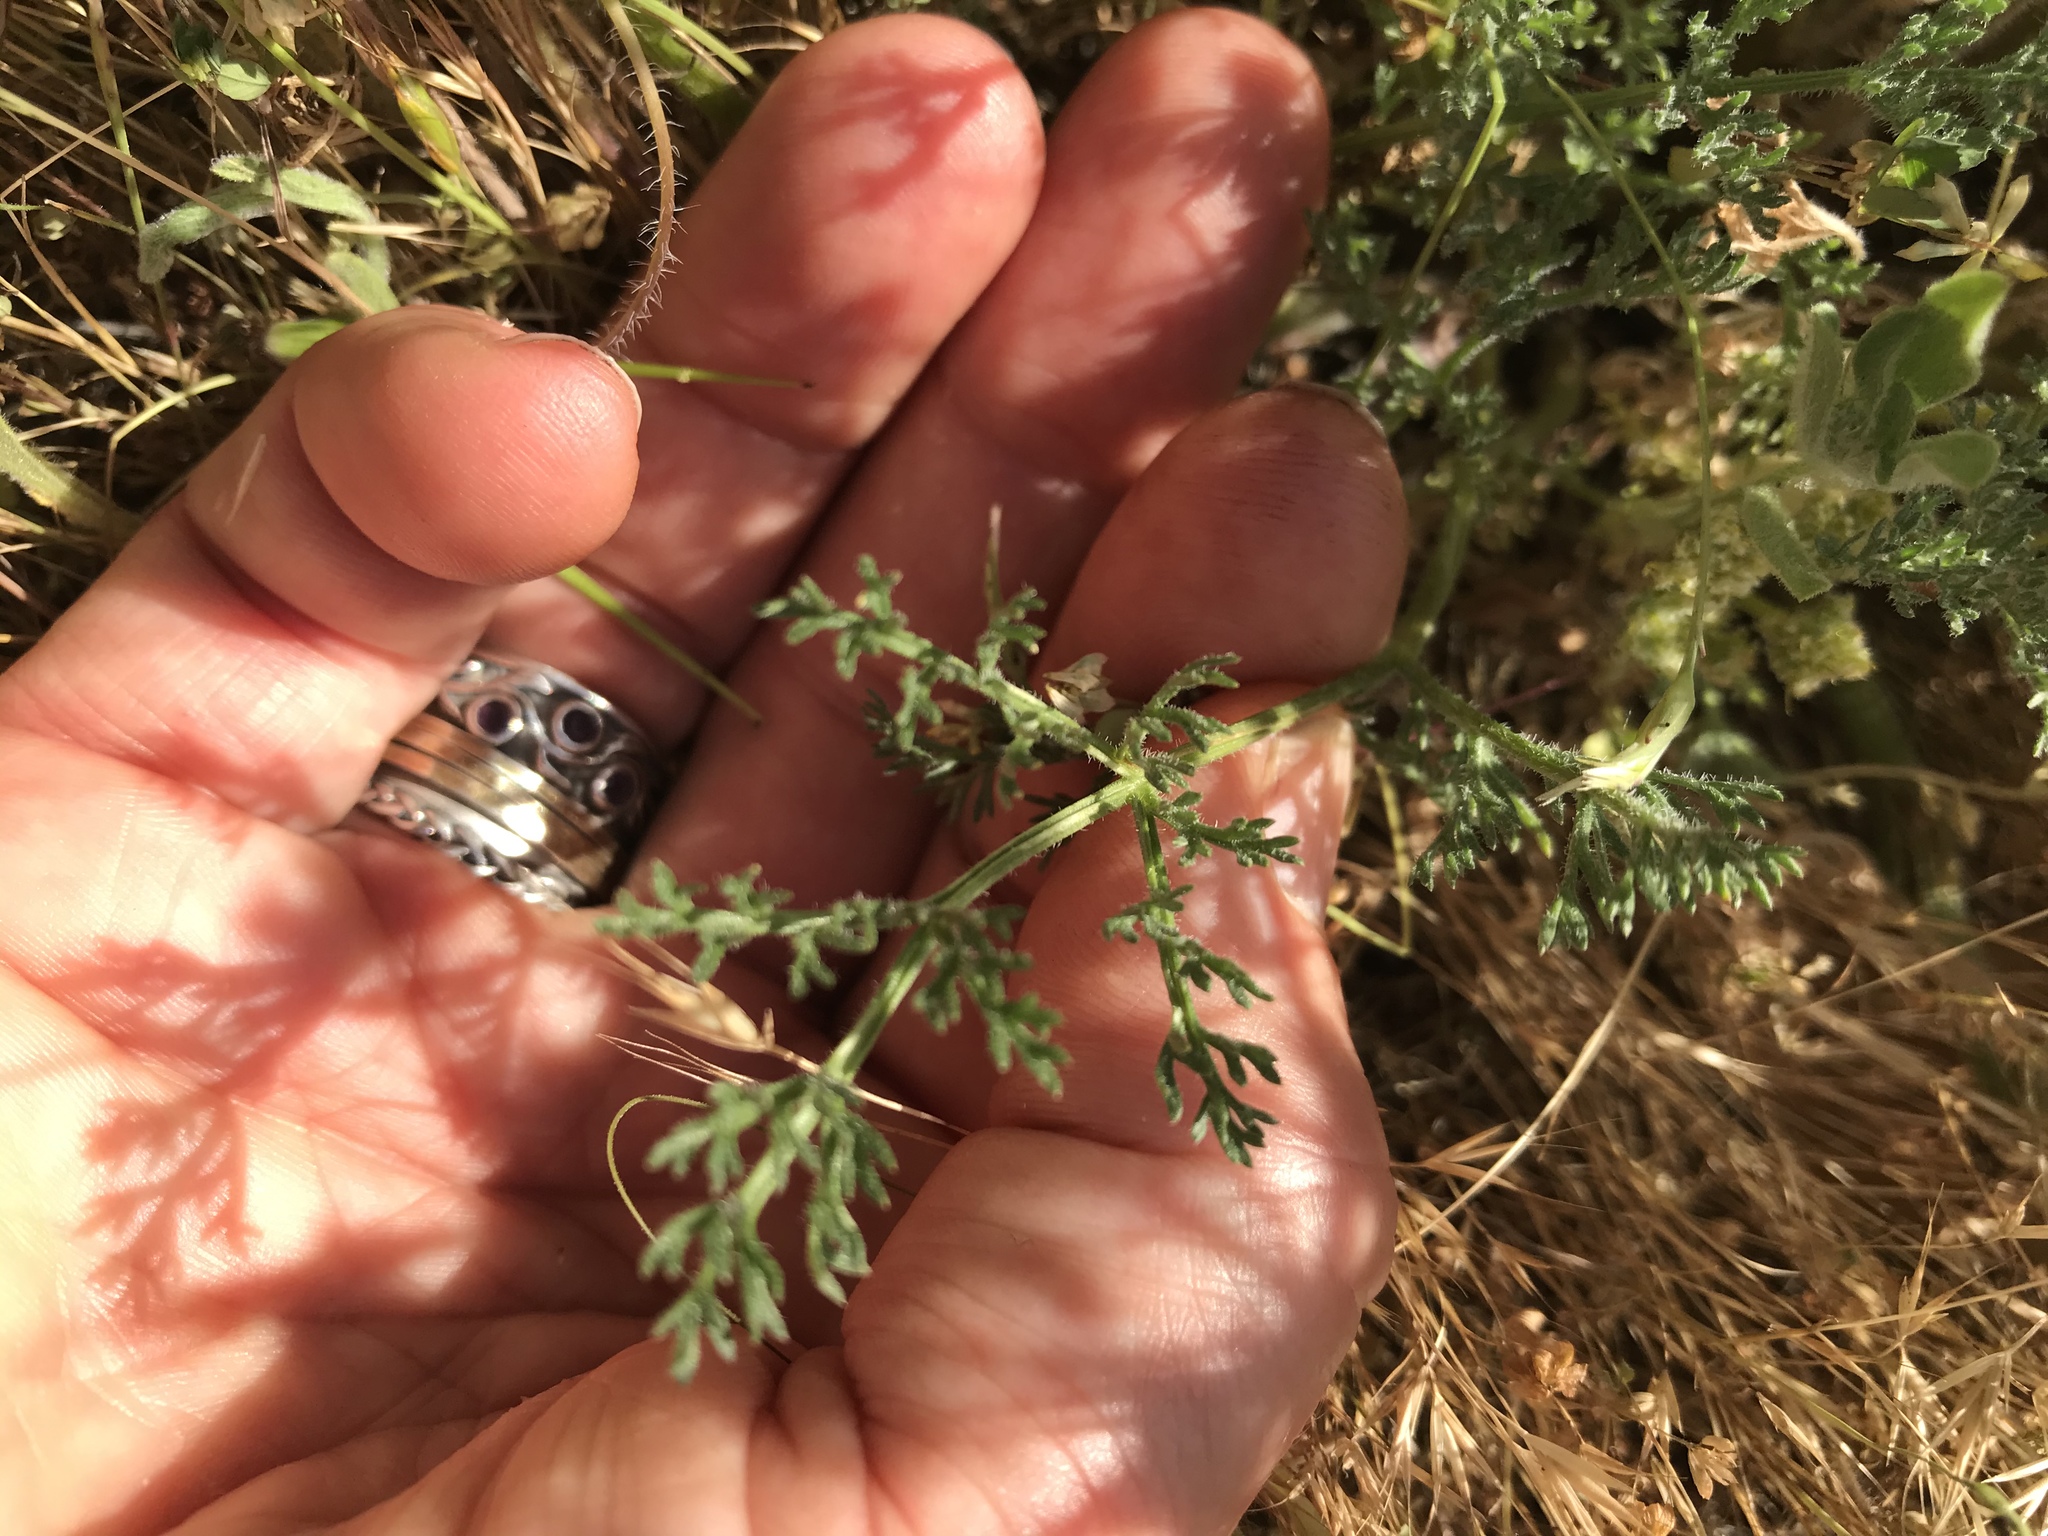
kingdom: Plantae
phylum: Tracheophyta
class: Magnoliopsida
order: Apiales
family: Apiaceae
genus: Lomatium
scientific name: Lomatium dasycarpum
